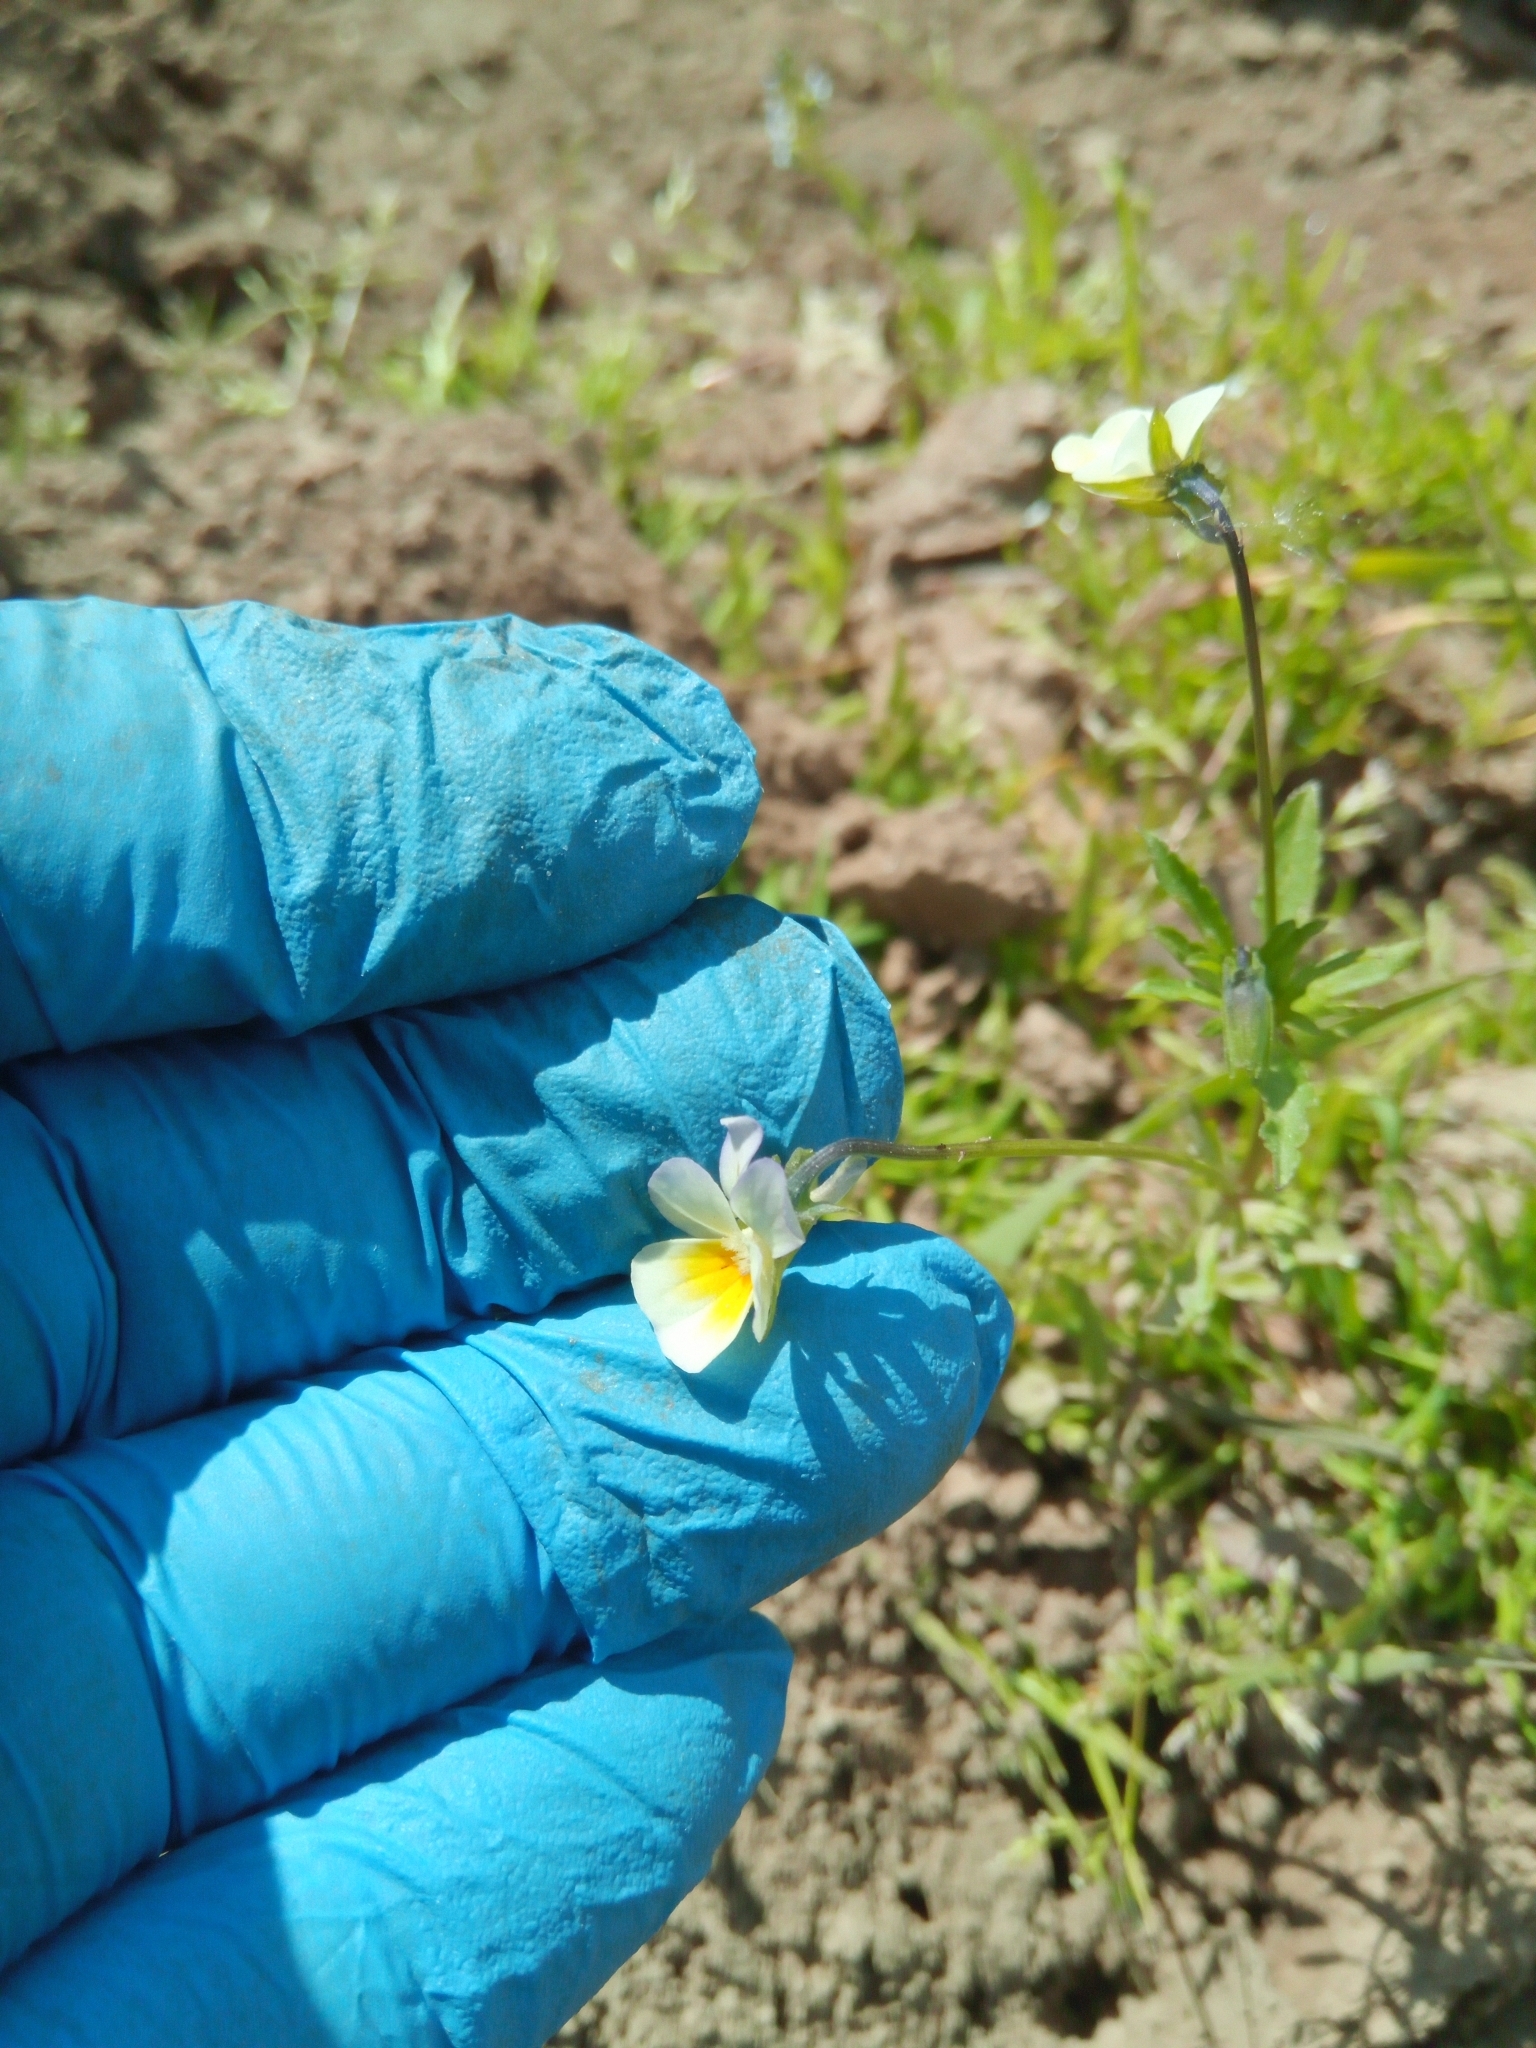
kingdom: Plantae
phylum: Tracheophyta
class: Magnoliopsida
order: Malpighiales
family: Violaceae
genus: Viola
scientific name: Viola arvensis
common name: Field pansy
